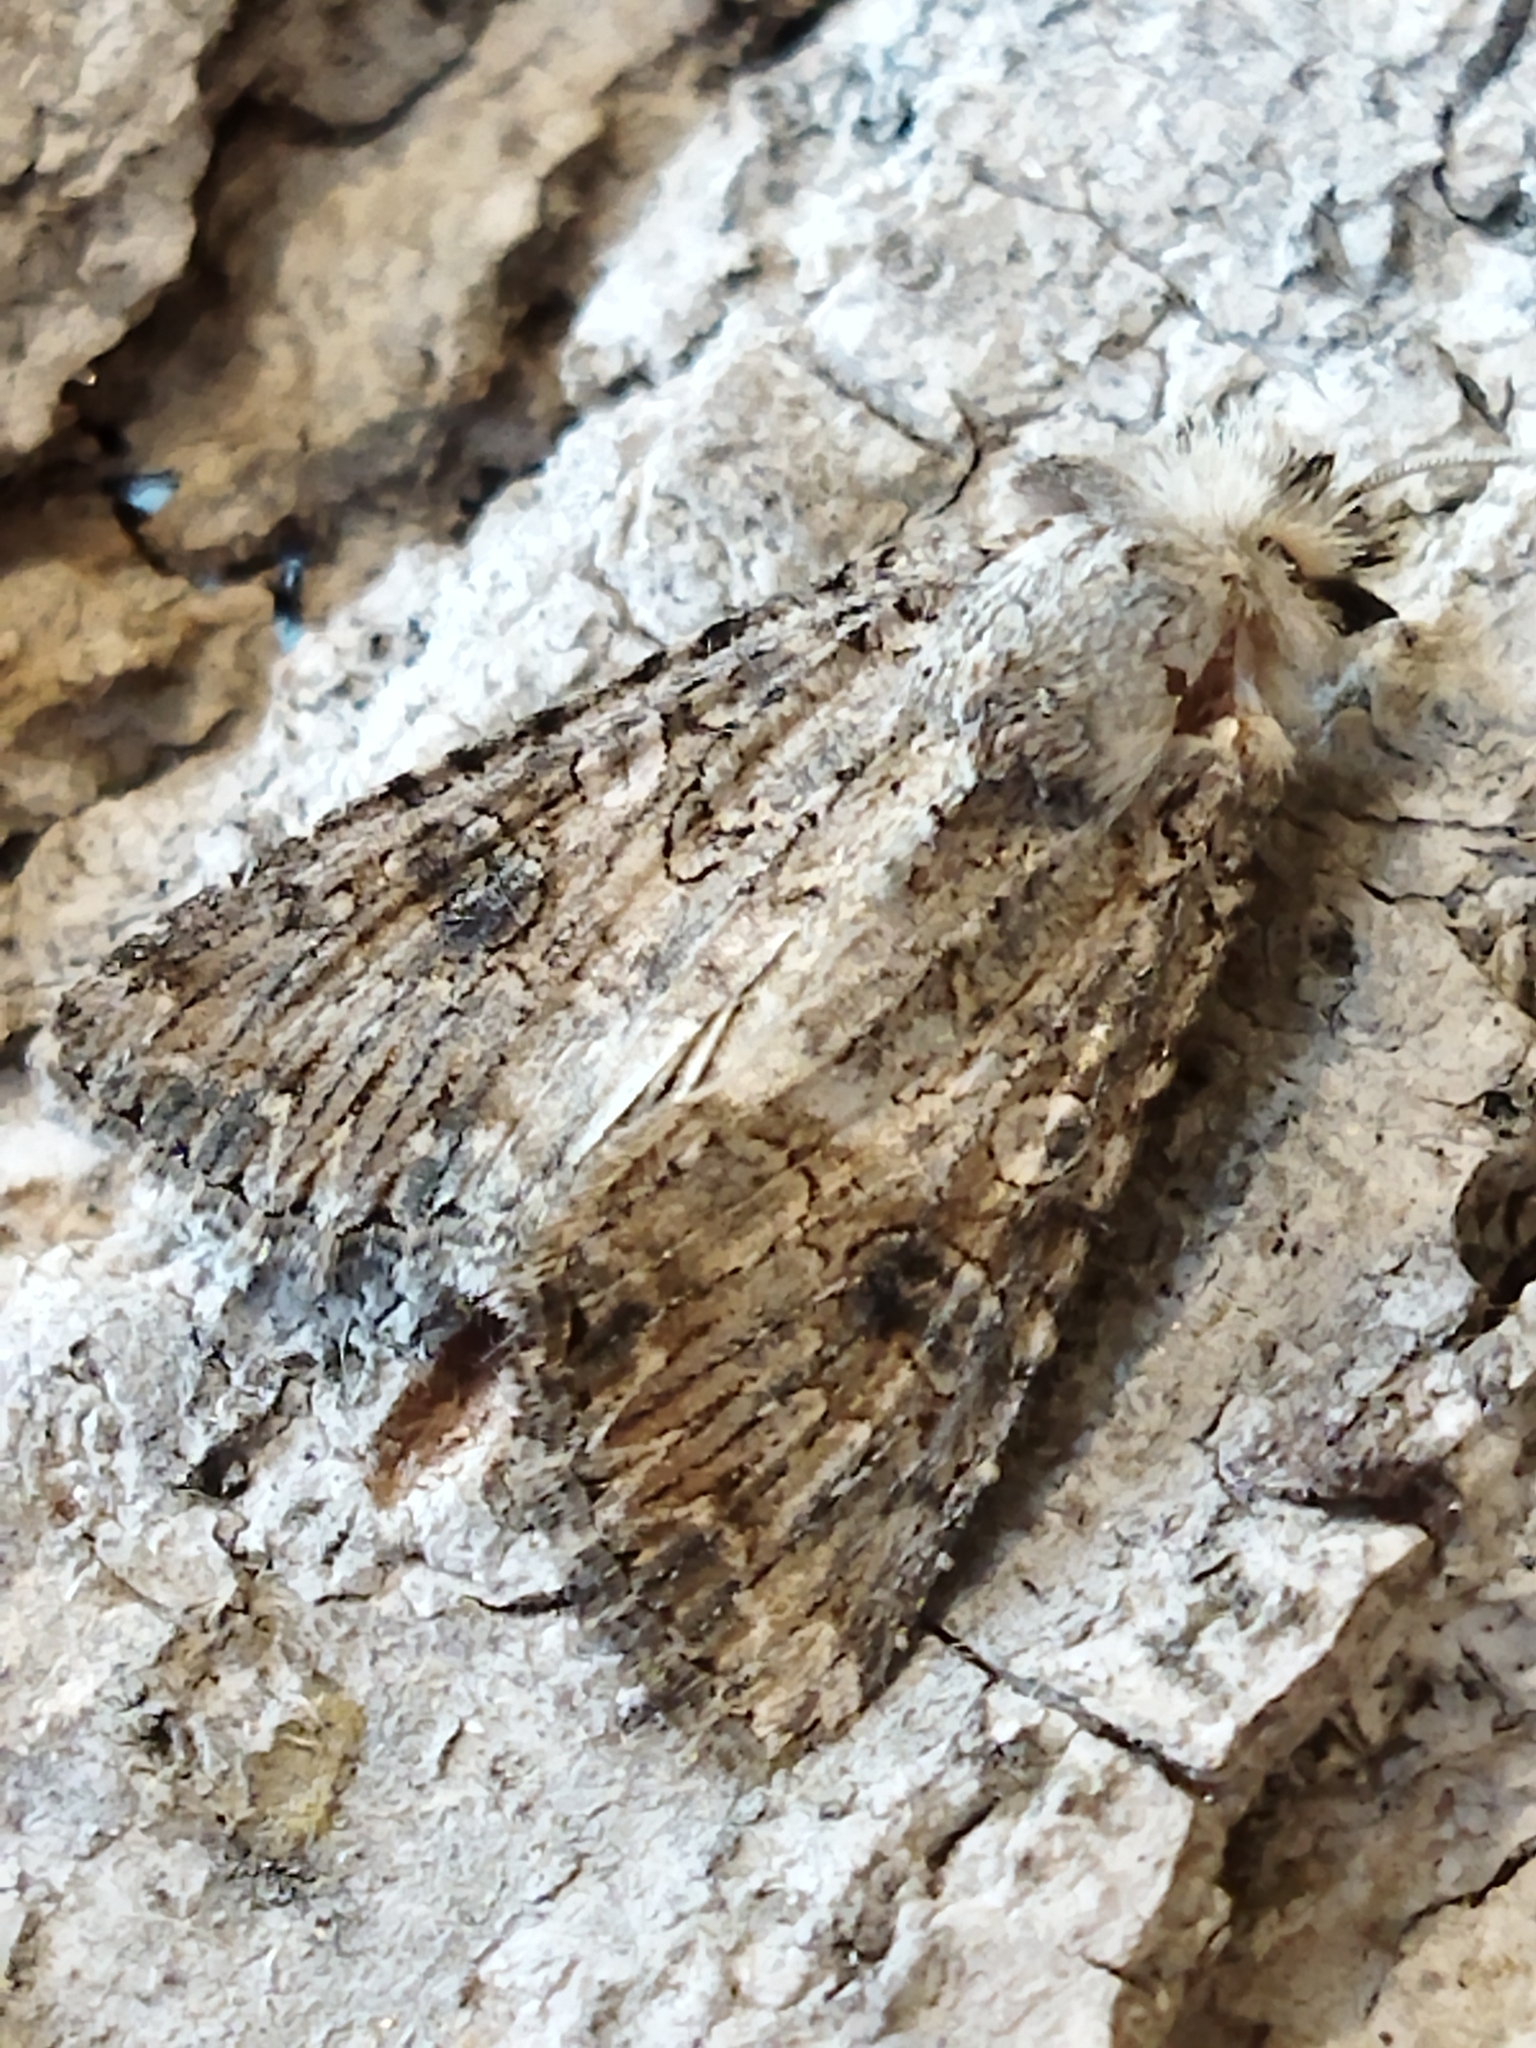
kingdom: Animalia
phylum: Arthropoda
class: Insecta
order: Lepidoptera
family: Noctuidae
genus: Anarta
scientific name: Anarta trifolii
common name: Clover cutworm moth
